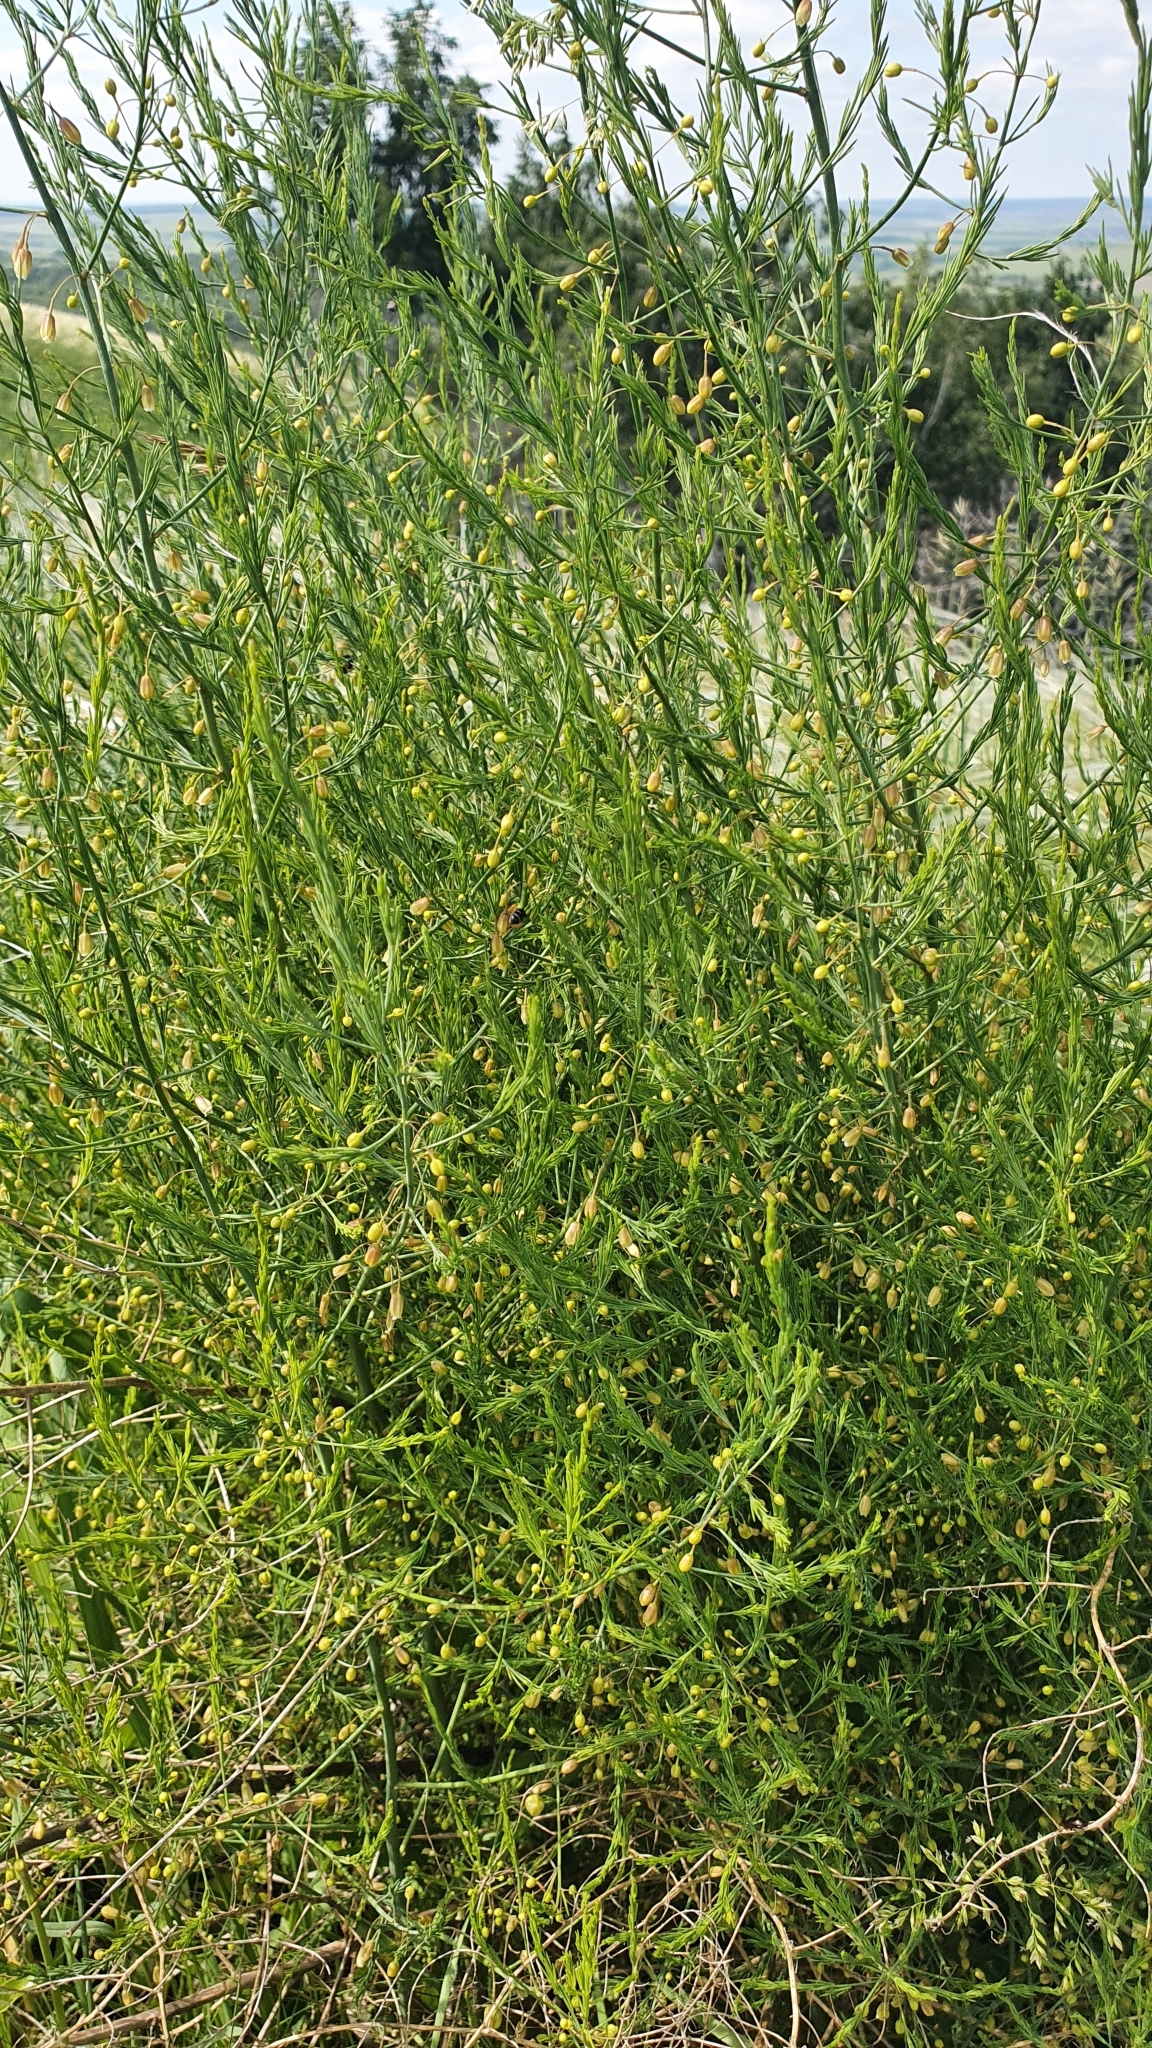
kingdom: Plantae
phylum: Tracheophyta
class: Liliopsida
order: Asparagales
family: Asparagaceae
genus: Asparagus
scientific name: Asparagus officinalis
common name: Garden asparagus
